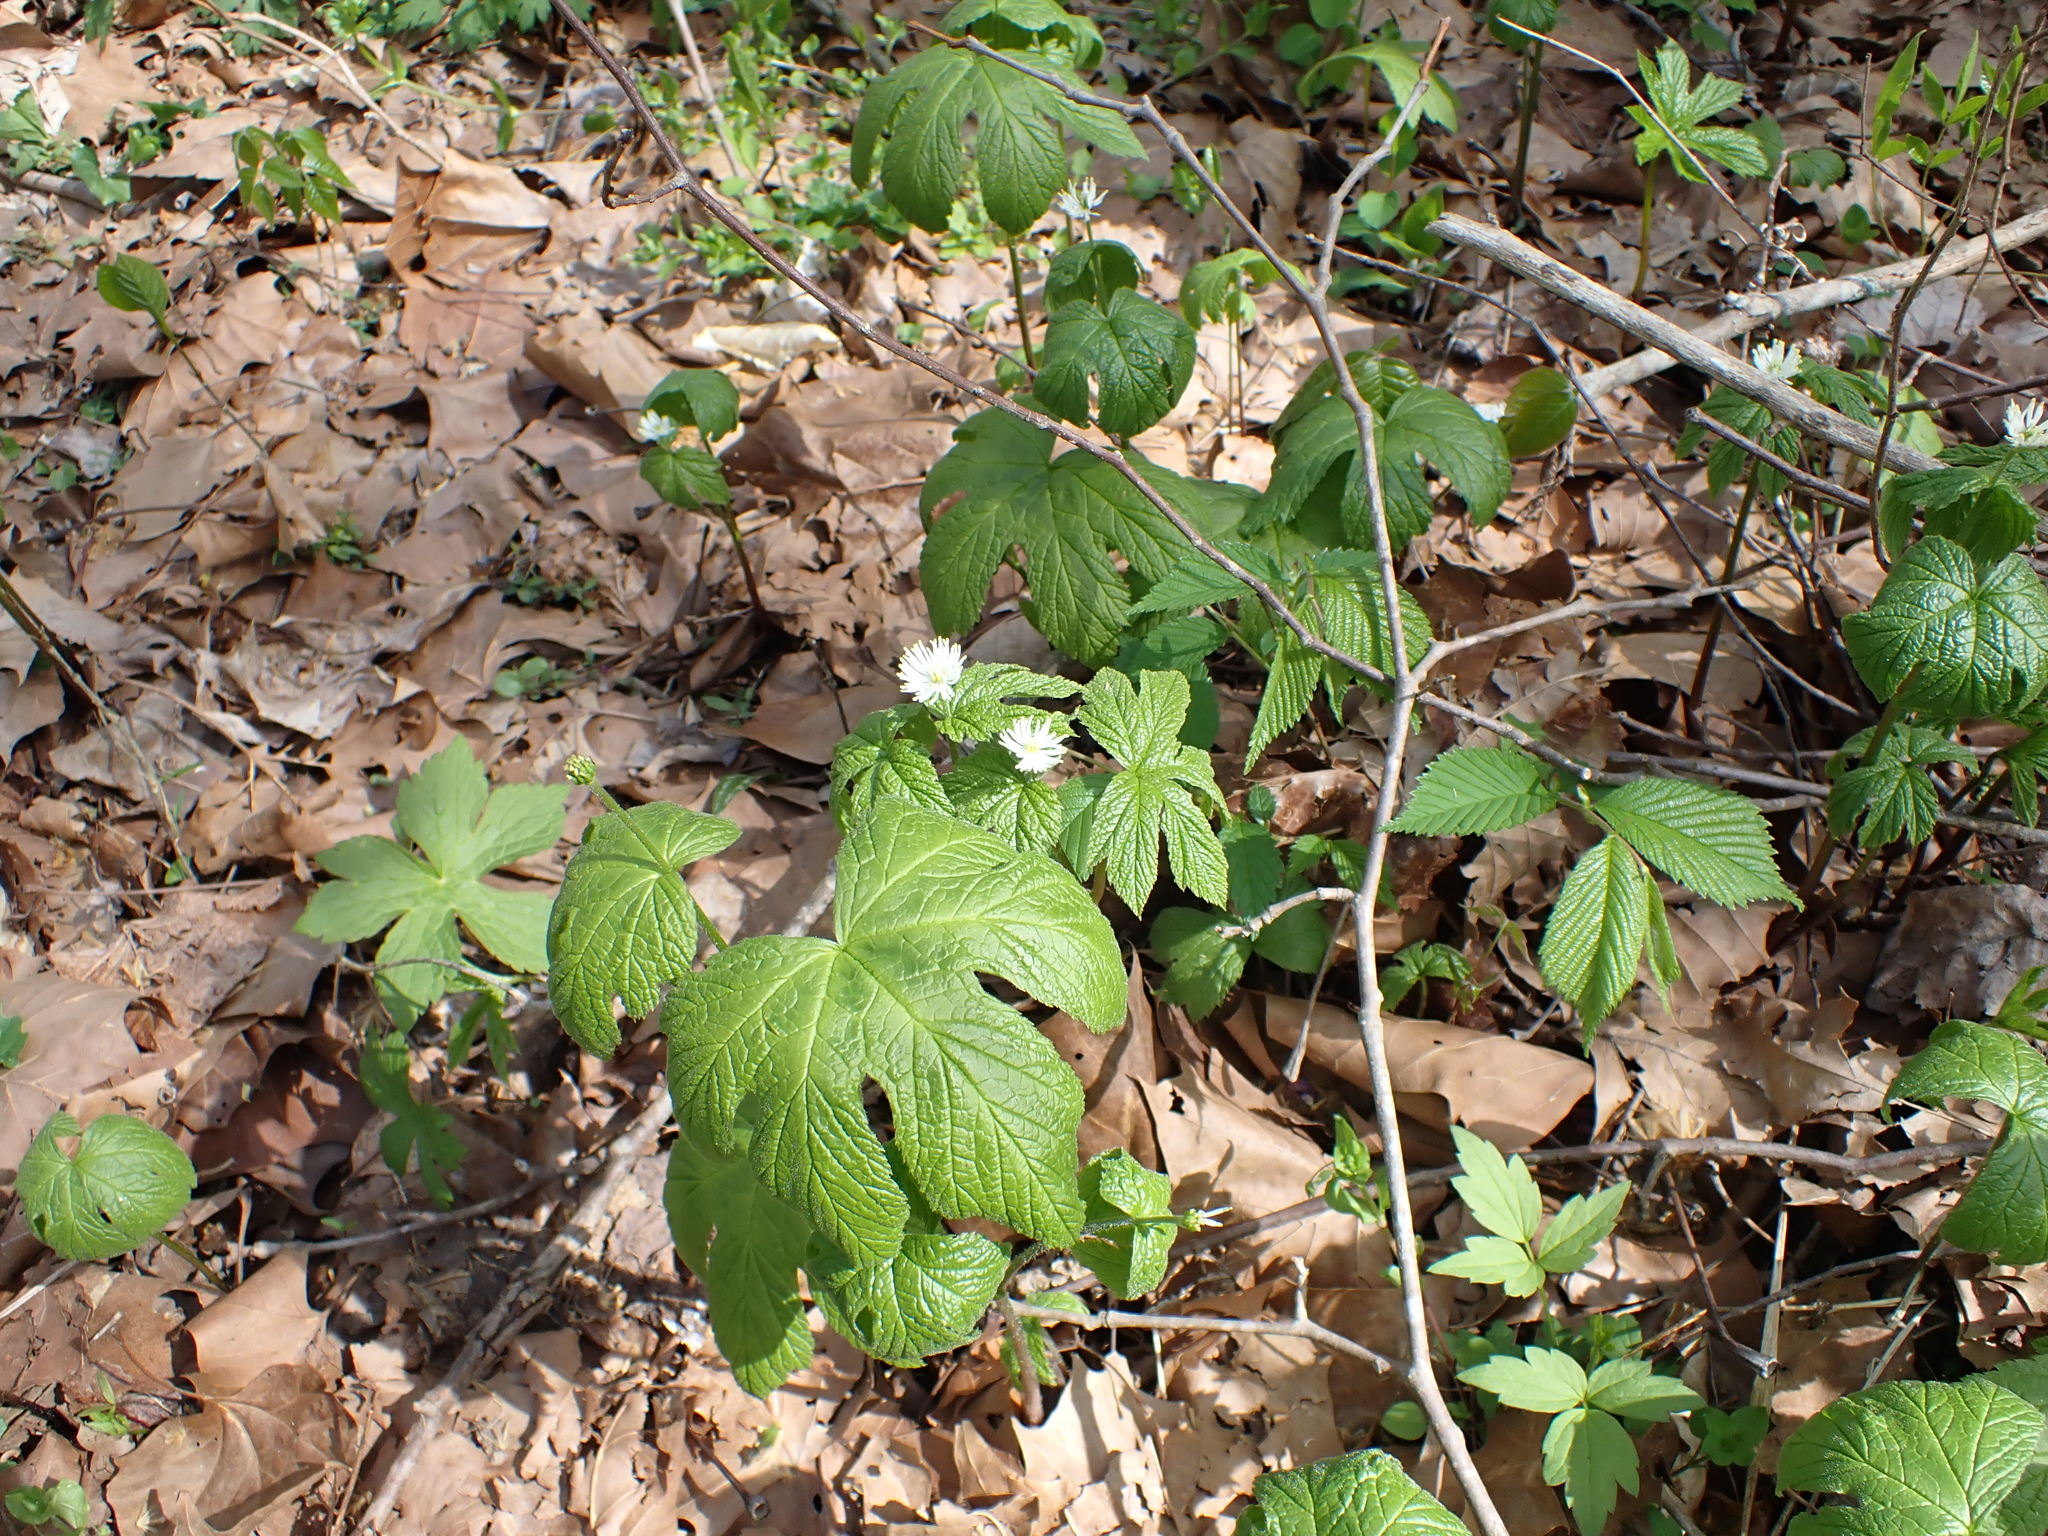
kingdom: Plantae
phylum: Tracheophyta
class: Magnoliopsida
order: Ranunculales
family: Ranunculaceae
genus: Hydrastis
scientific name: Hydrastis canadensis
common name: Goldenseal
